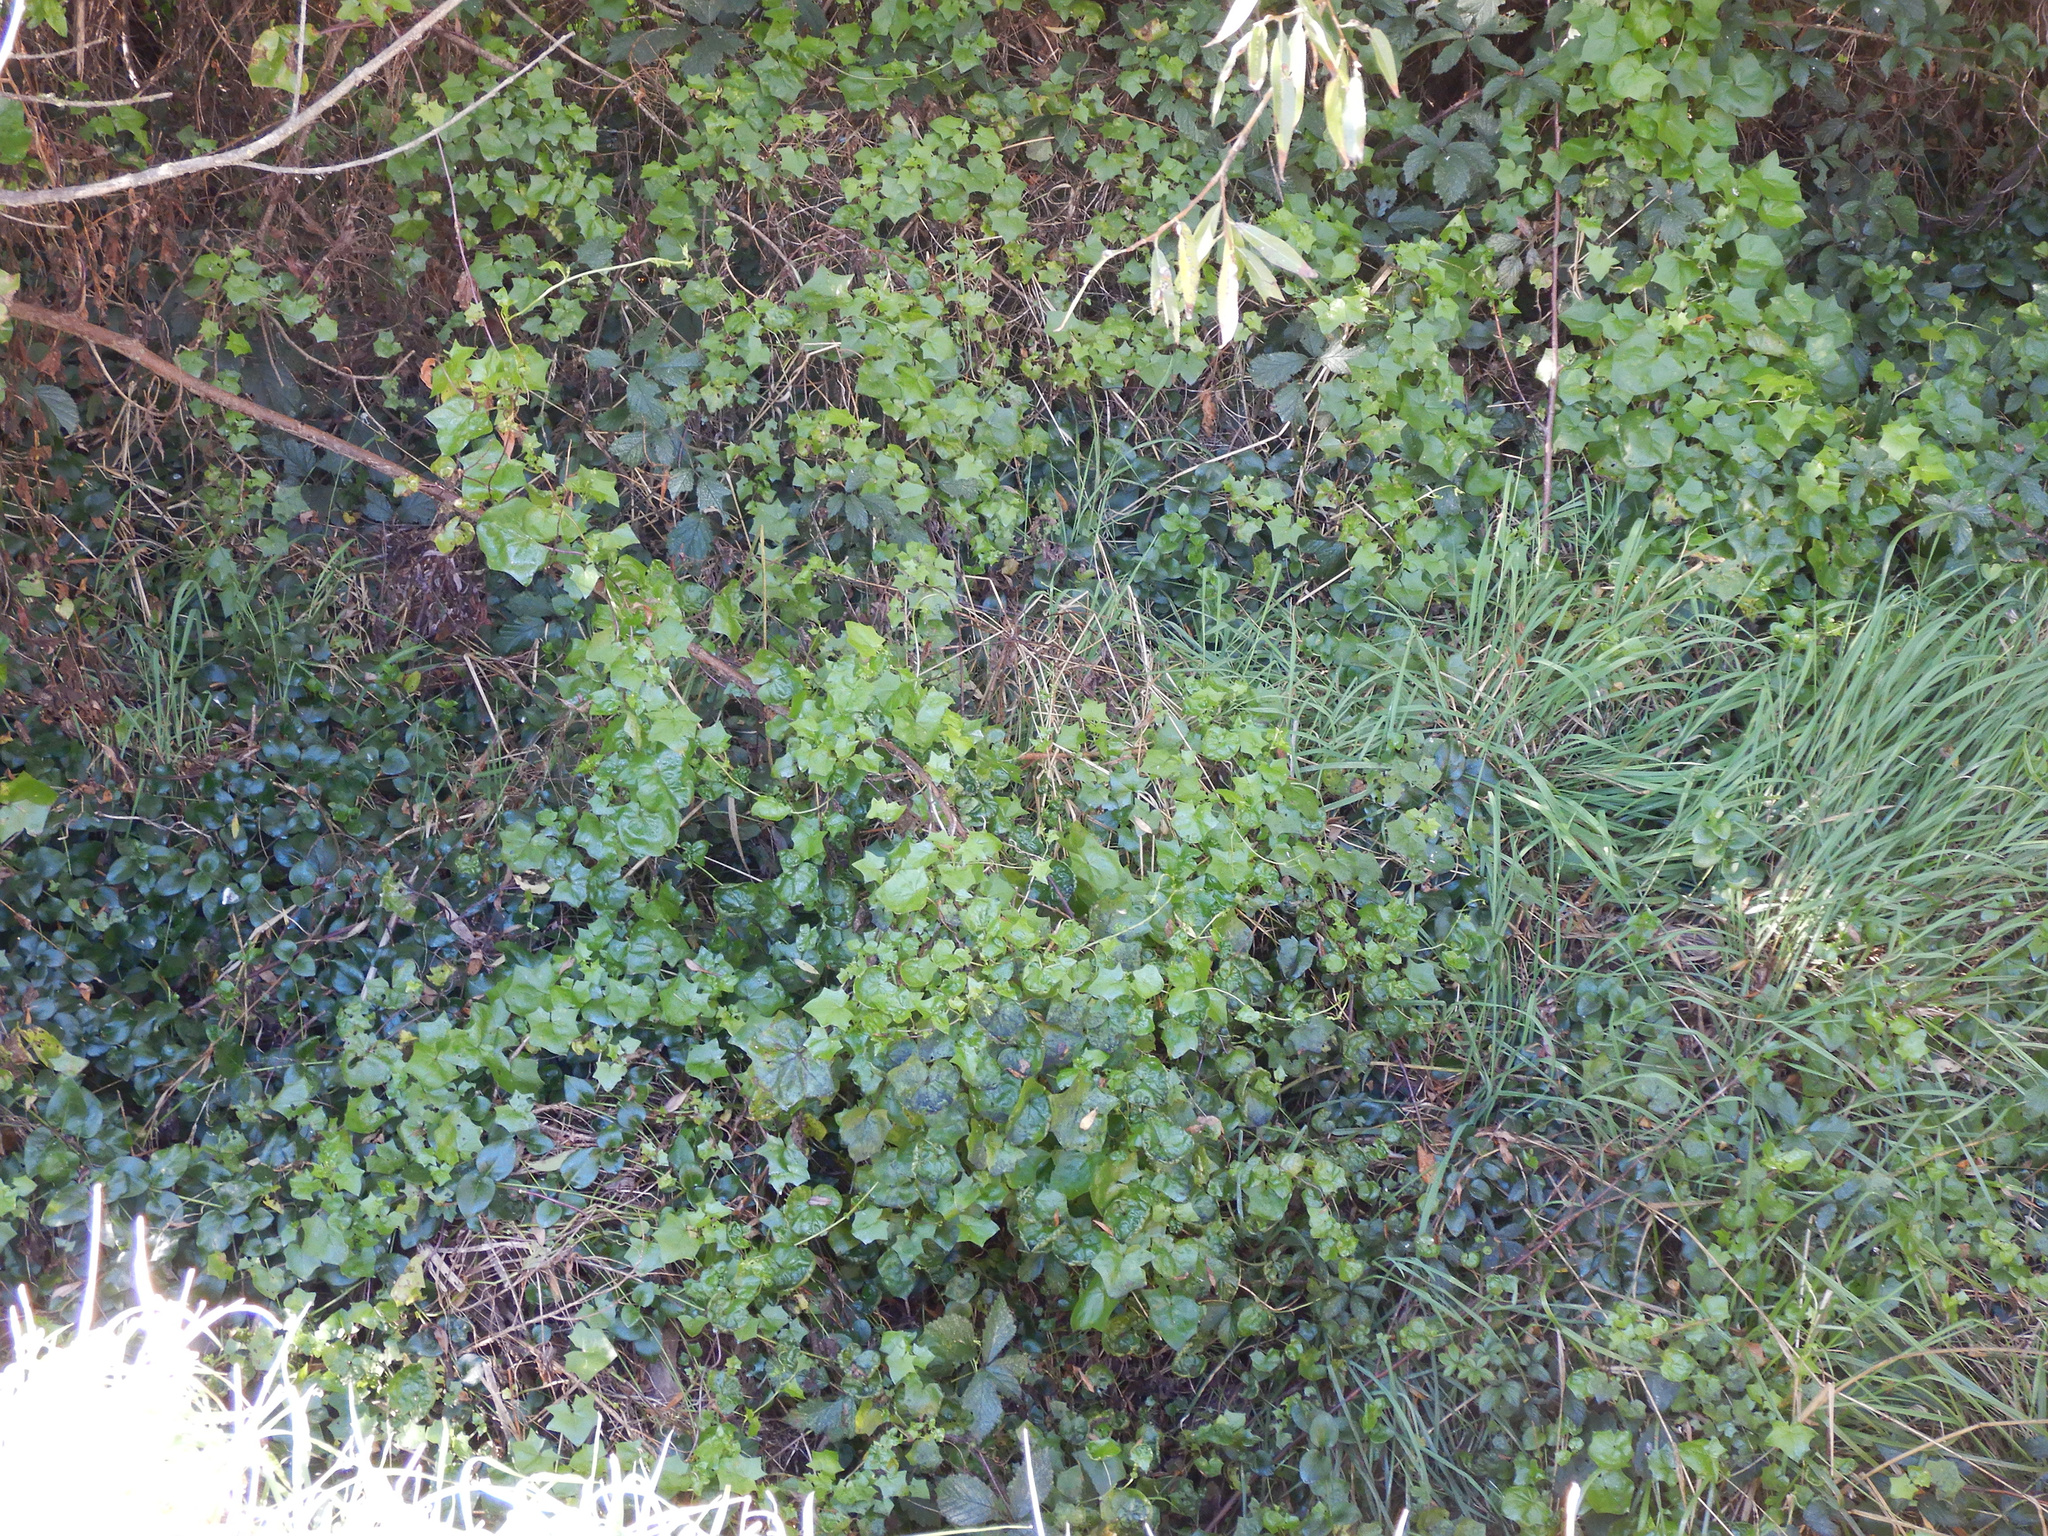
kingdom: Plantae
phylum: Tracheophyta
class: Magnoliopsida
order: Asterales
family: Asteraceae
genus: Delairea
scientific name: Delairea odorata
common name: Cape-ivy
